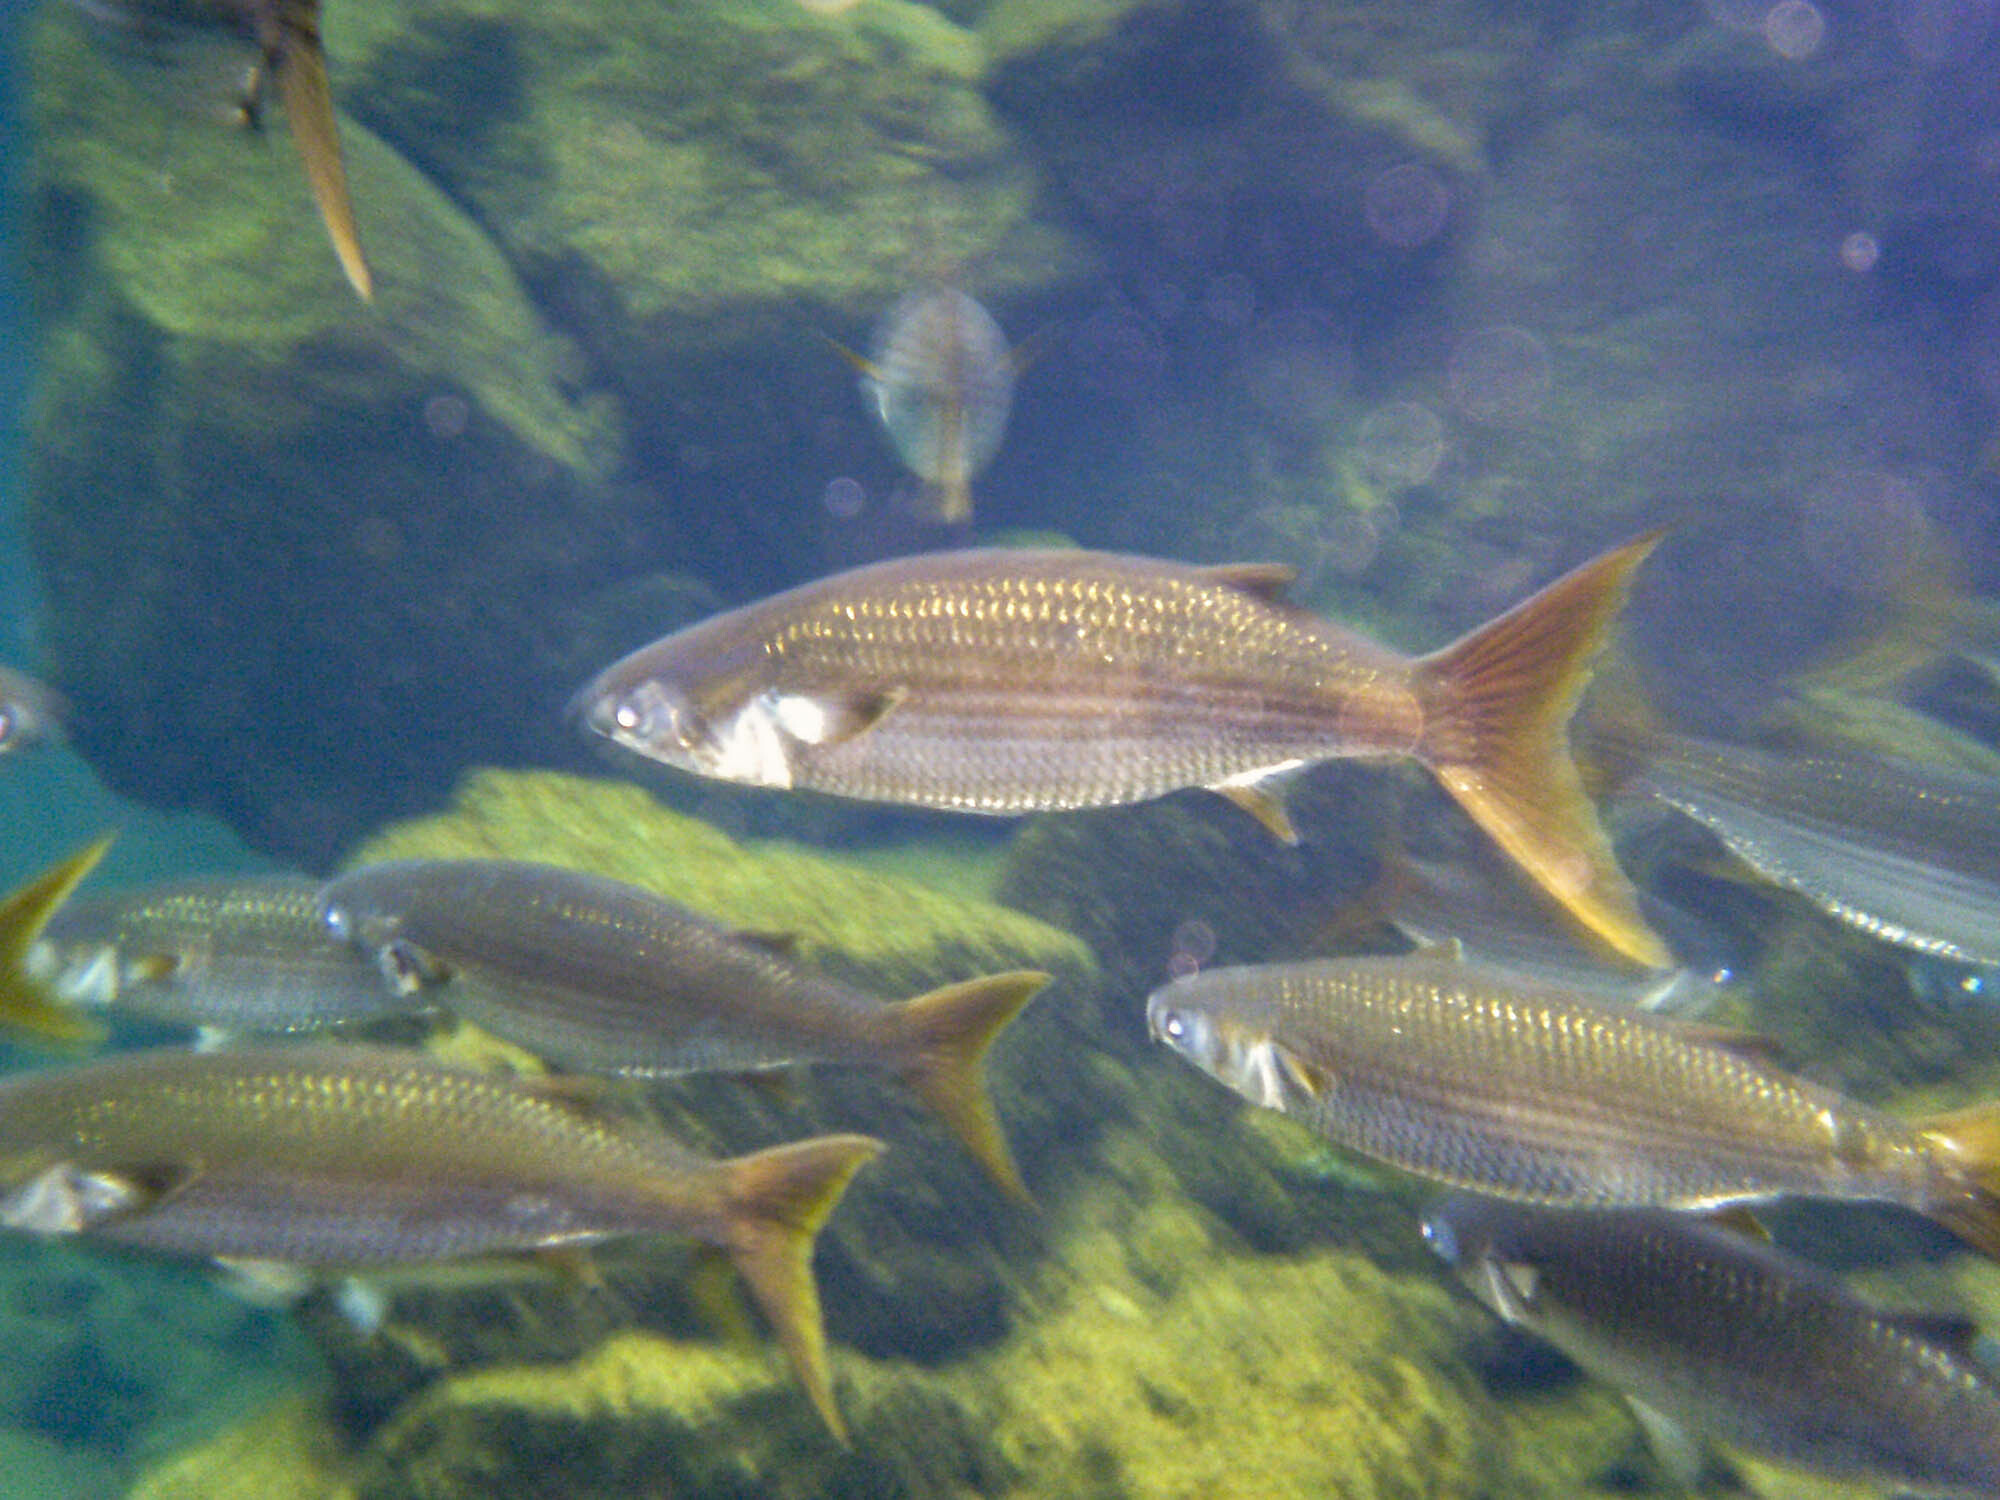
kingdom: Animalia
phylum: Chordata
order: Mugiliformes
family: Mugilidae
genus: Mugil
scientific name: Mugil cephalus
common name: Grey mullet
